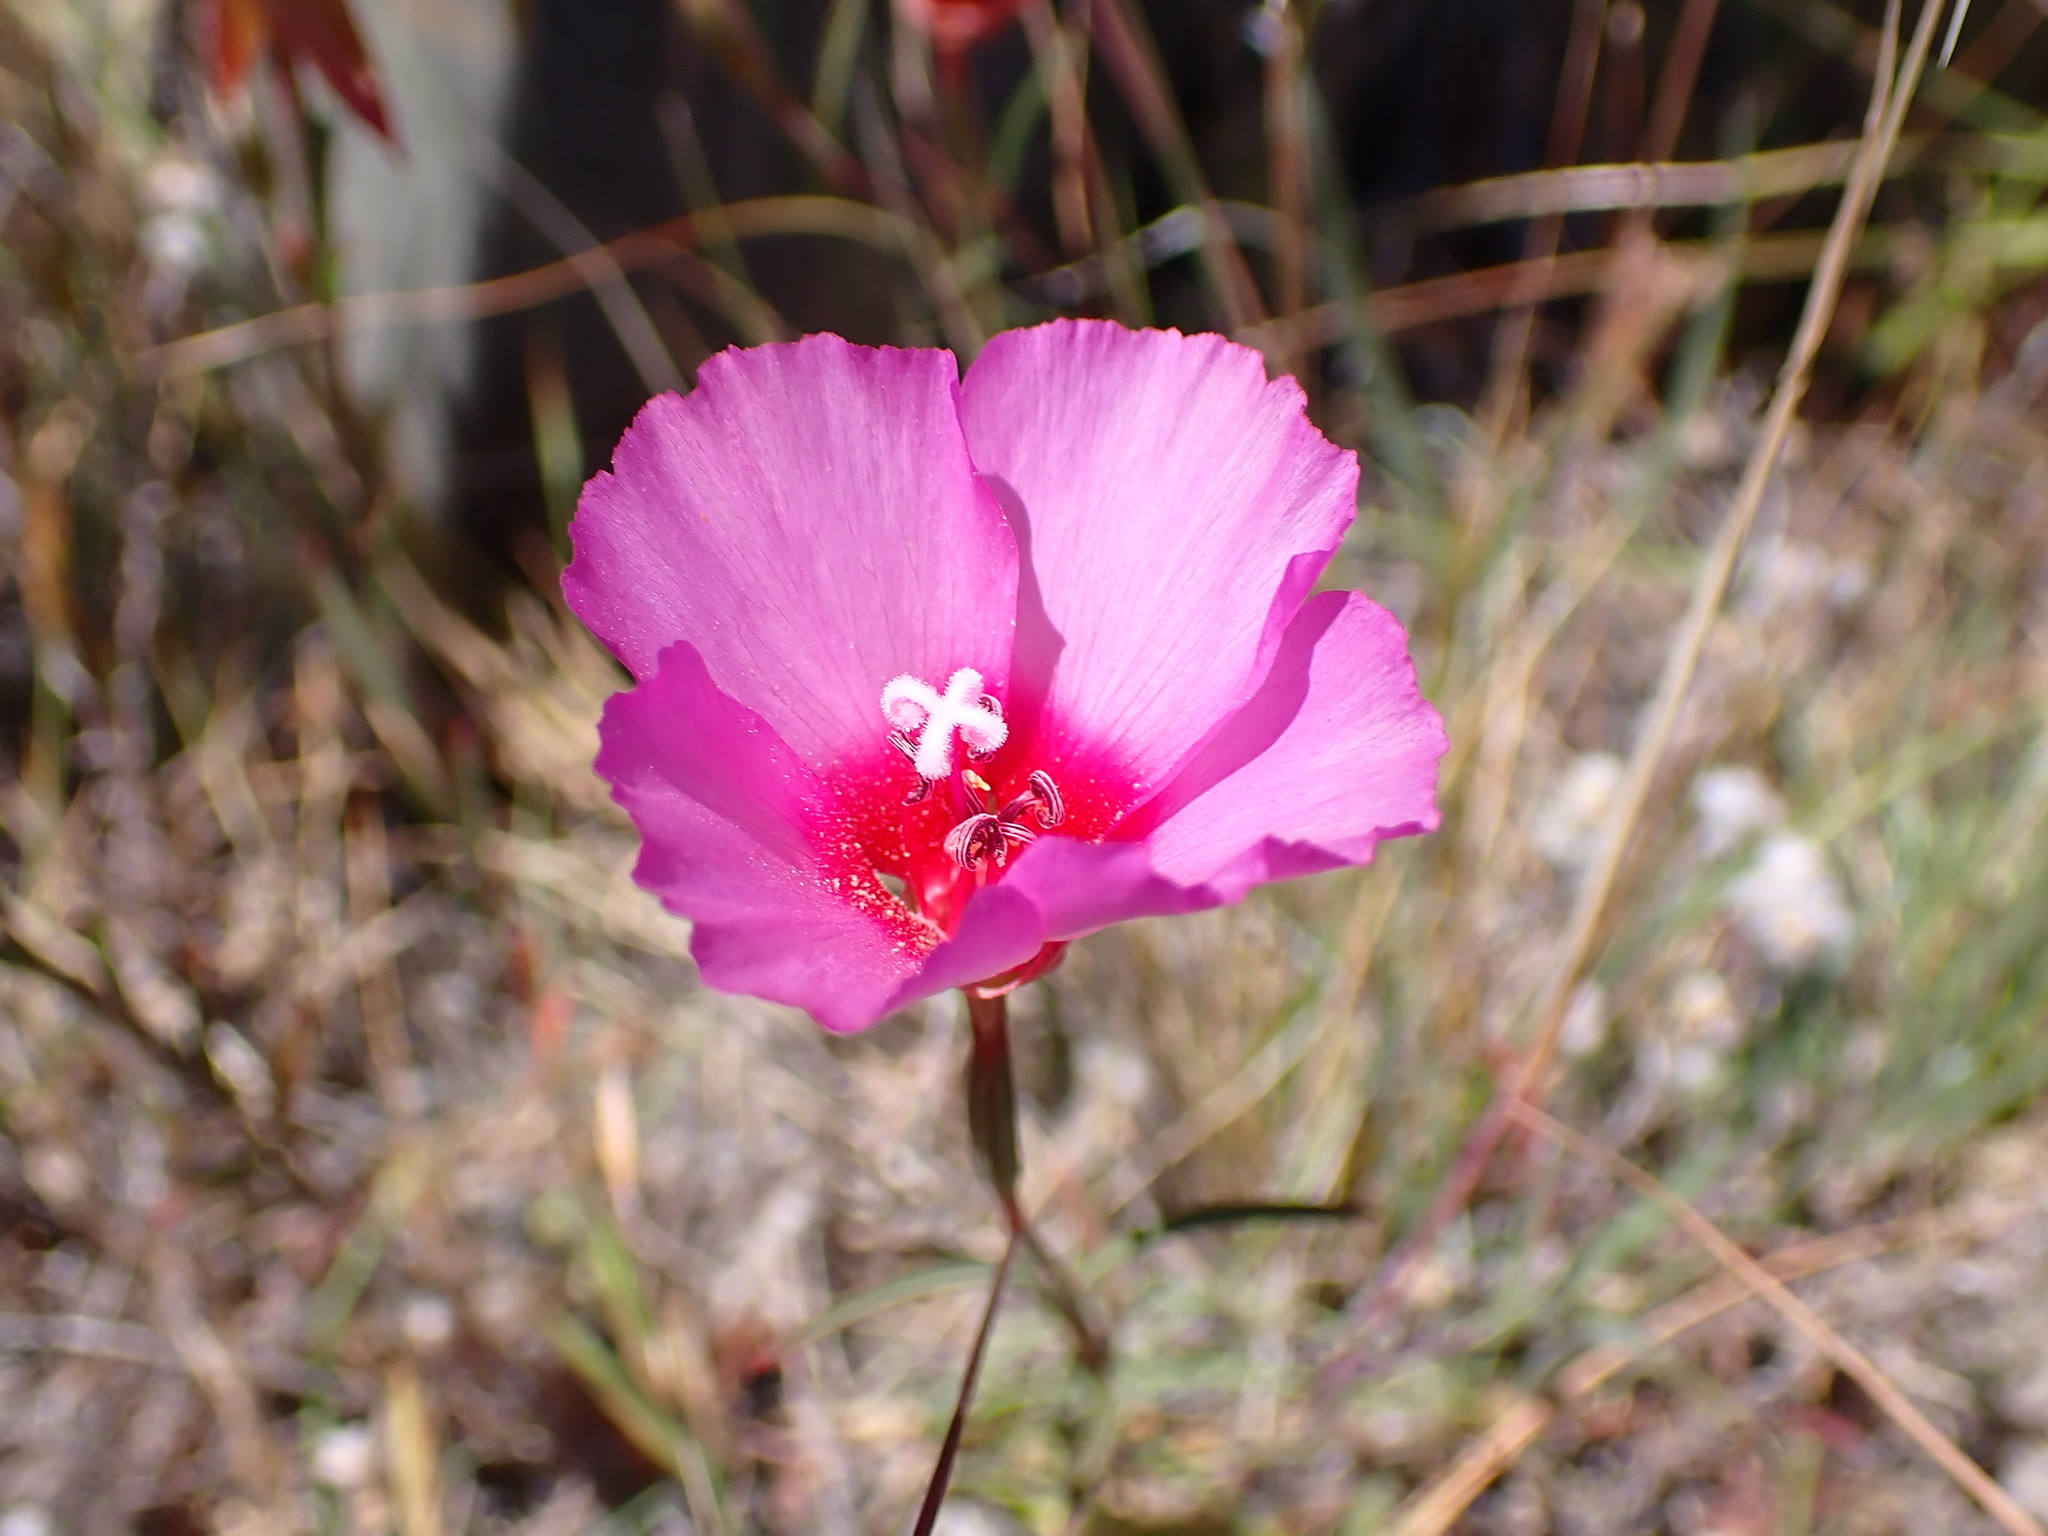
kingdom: Plantae
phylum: Tracheophyta
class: Magnoliopsida
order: Myrtales
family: Onagraceae
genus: Clarkia
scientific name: Clarkia rubicunda
